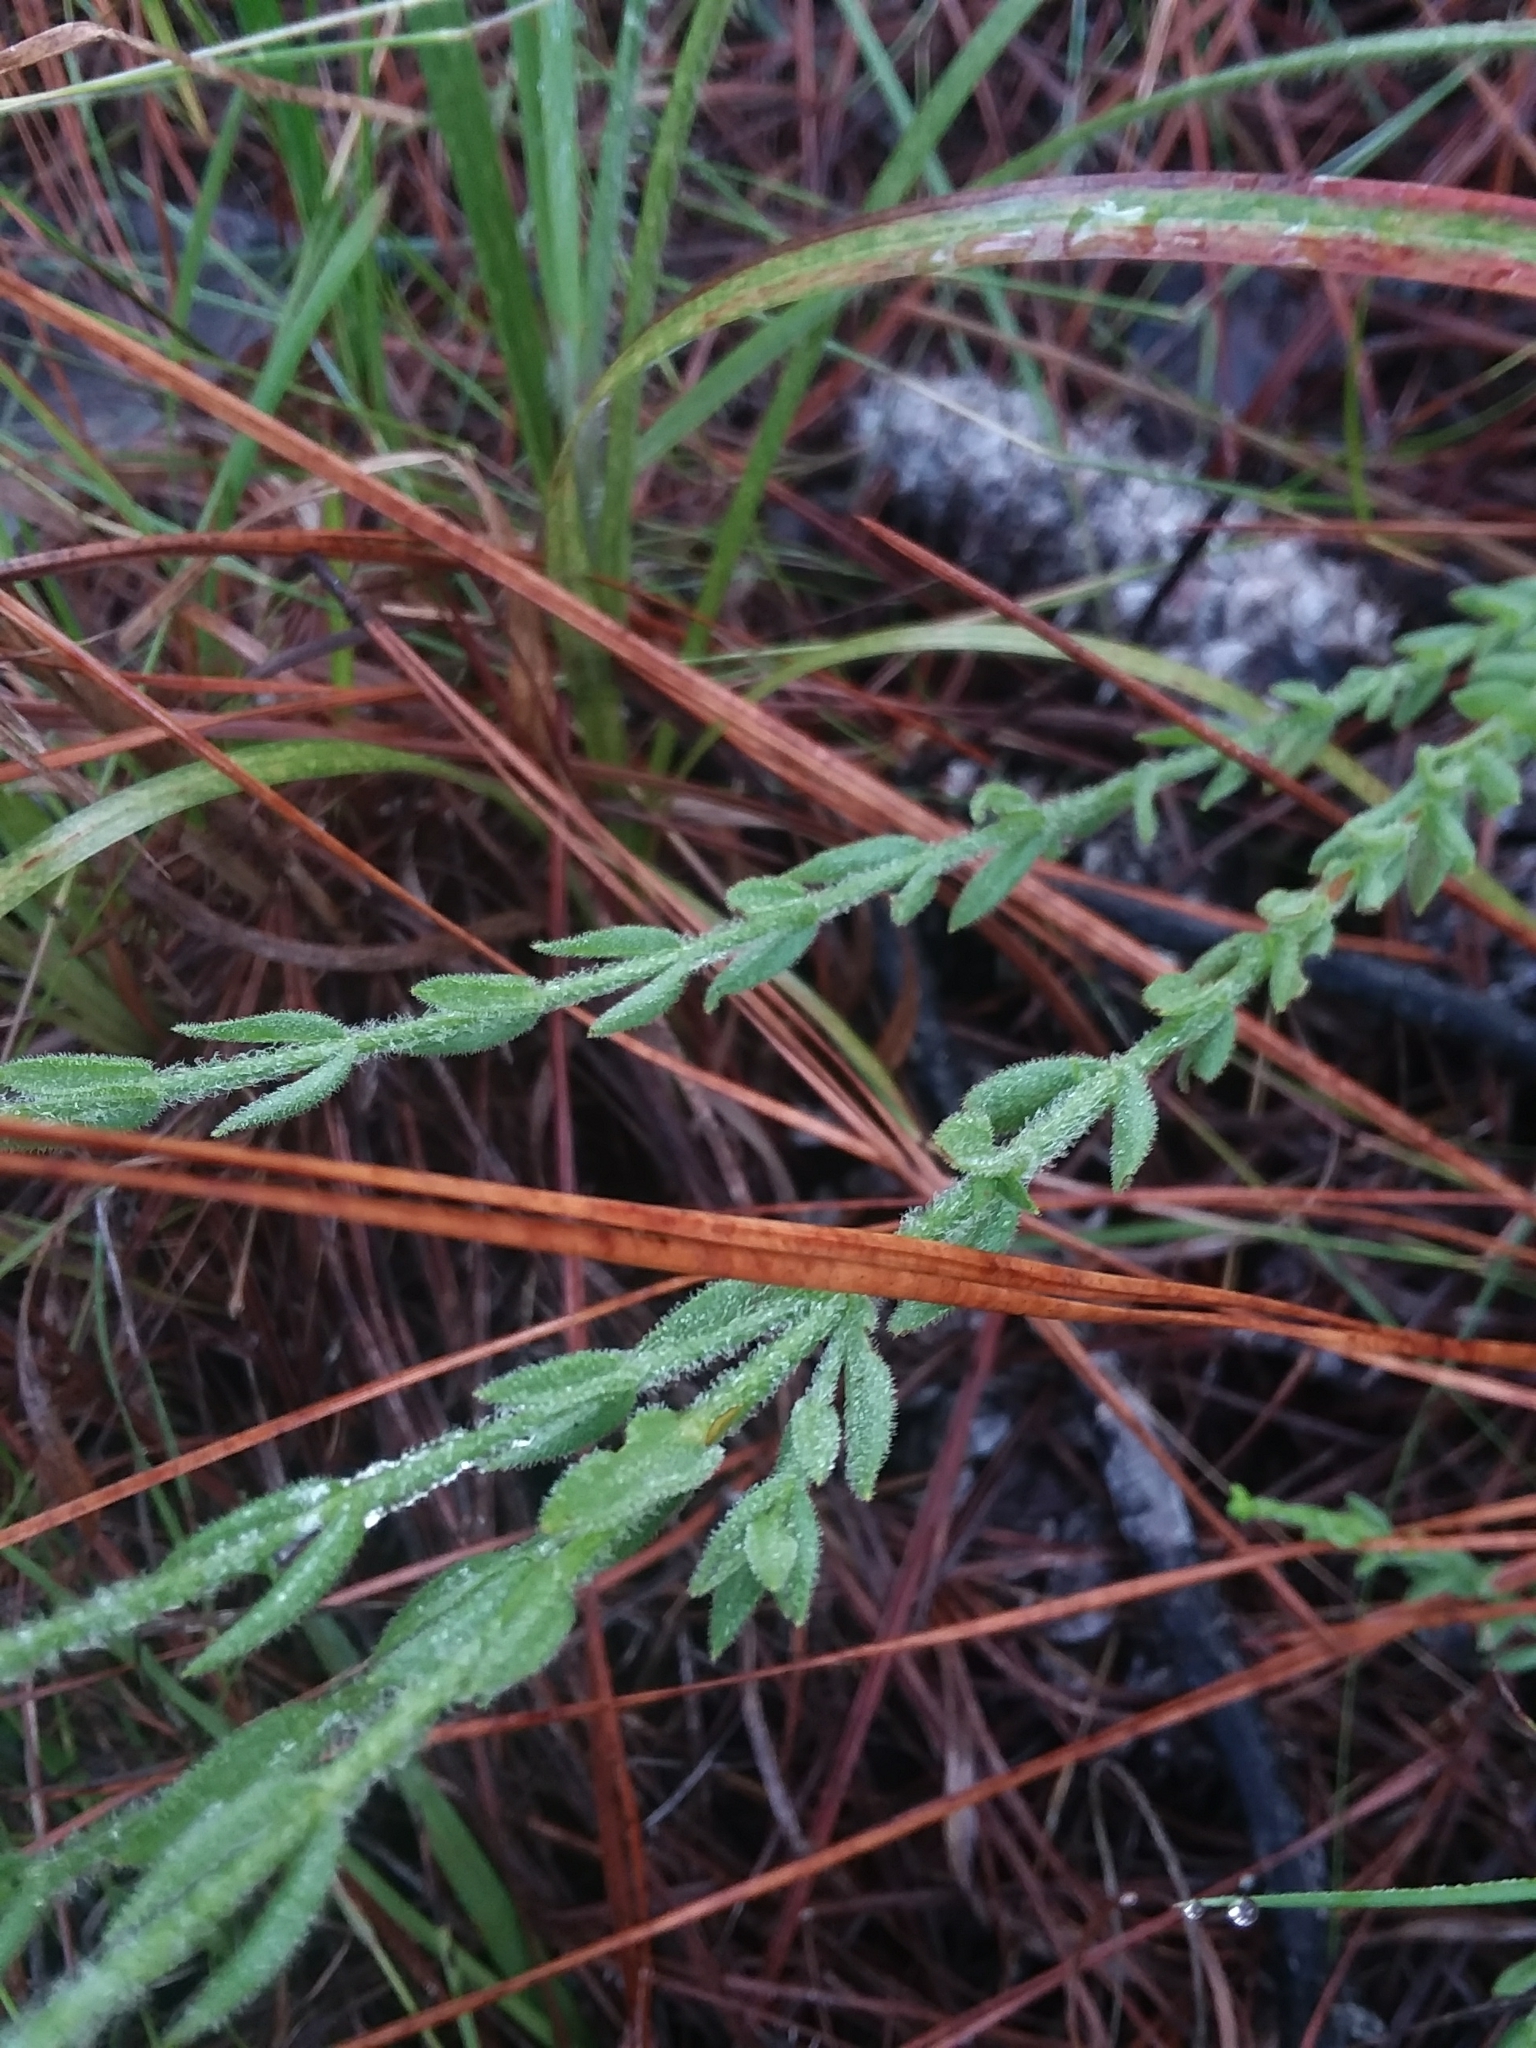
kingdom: Plantae
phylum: Tracheophyta
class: Magnoliopsida
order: Malpighiales
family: Hypericaceae
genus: Hypericum
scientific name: Hypericum setosum
